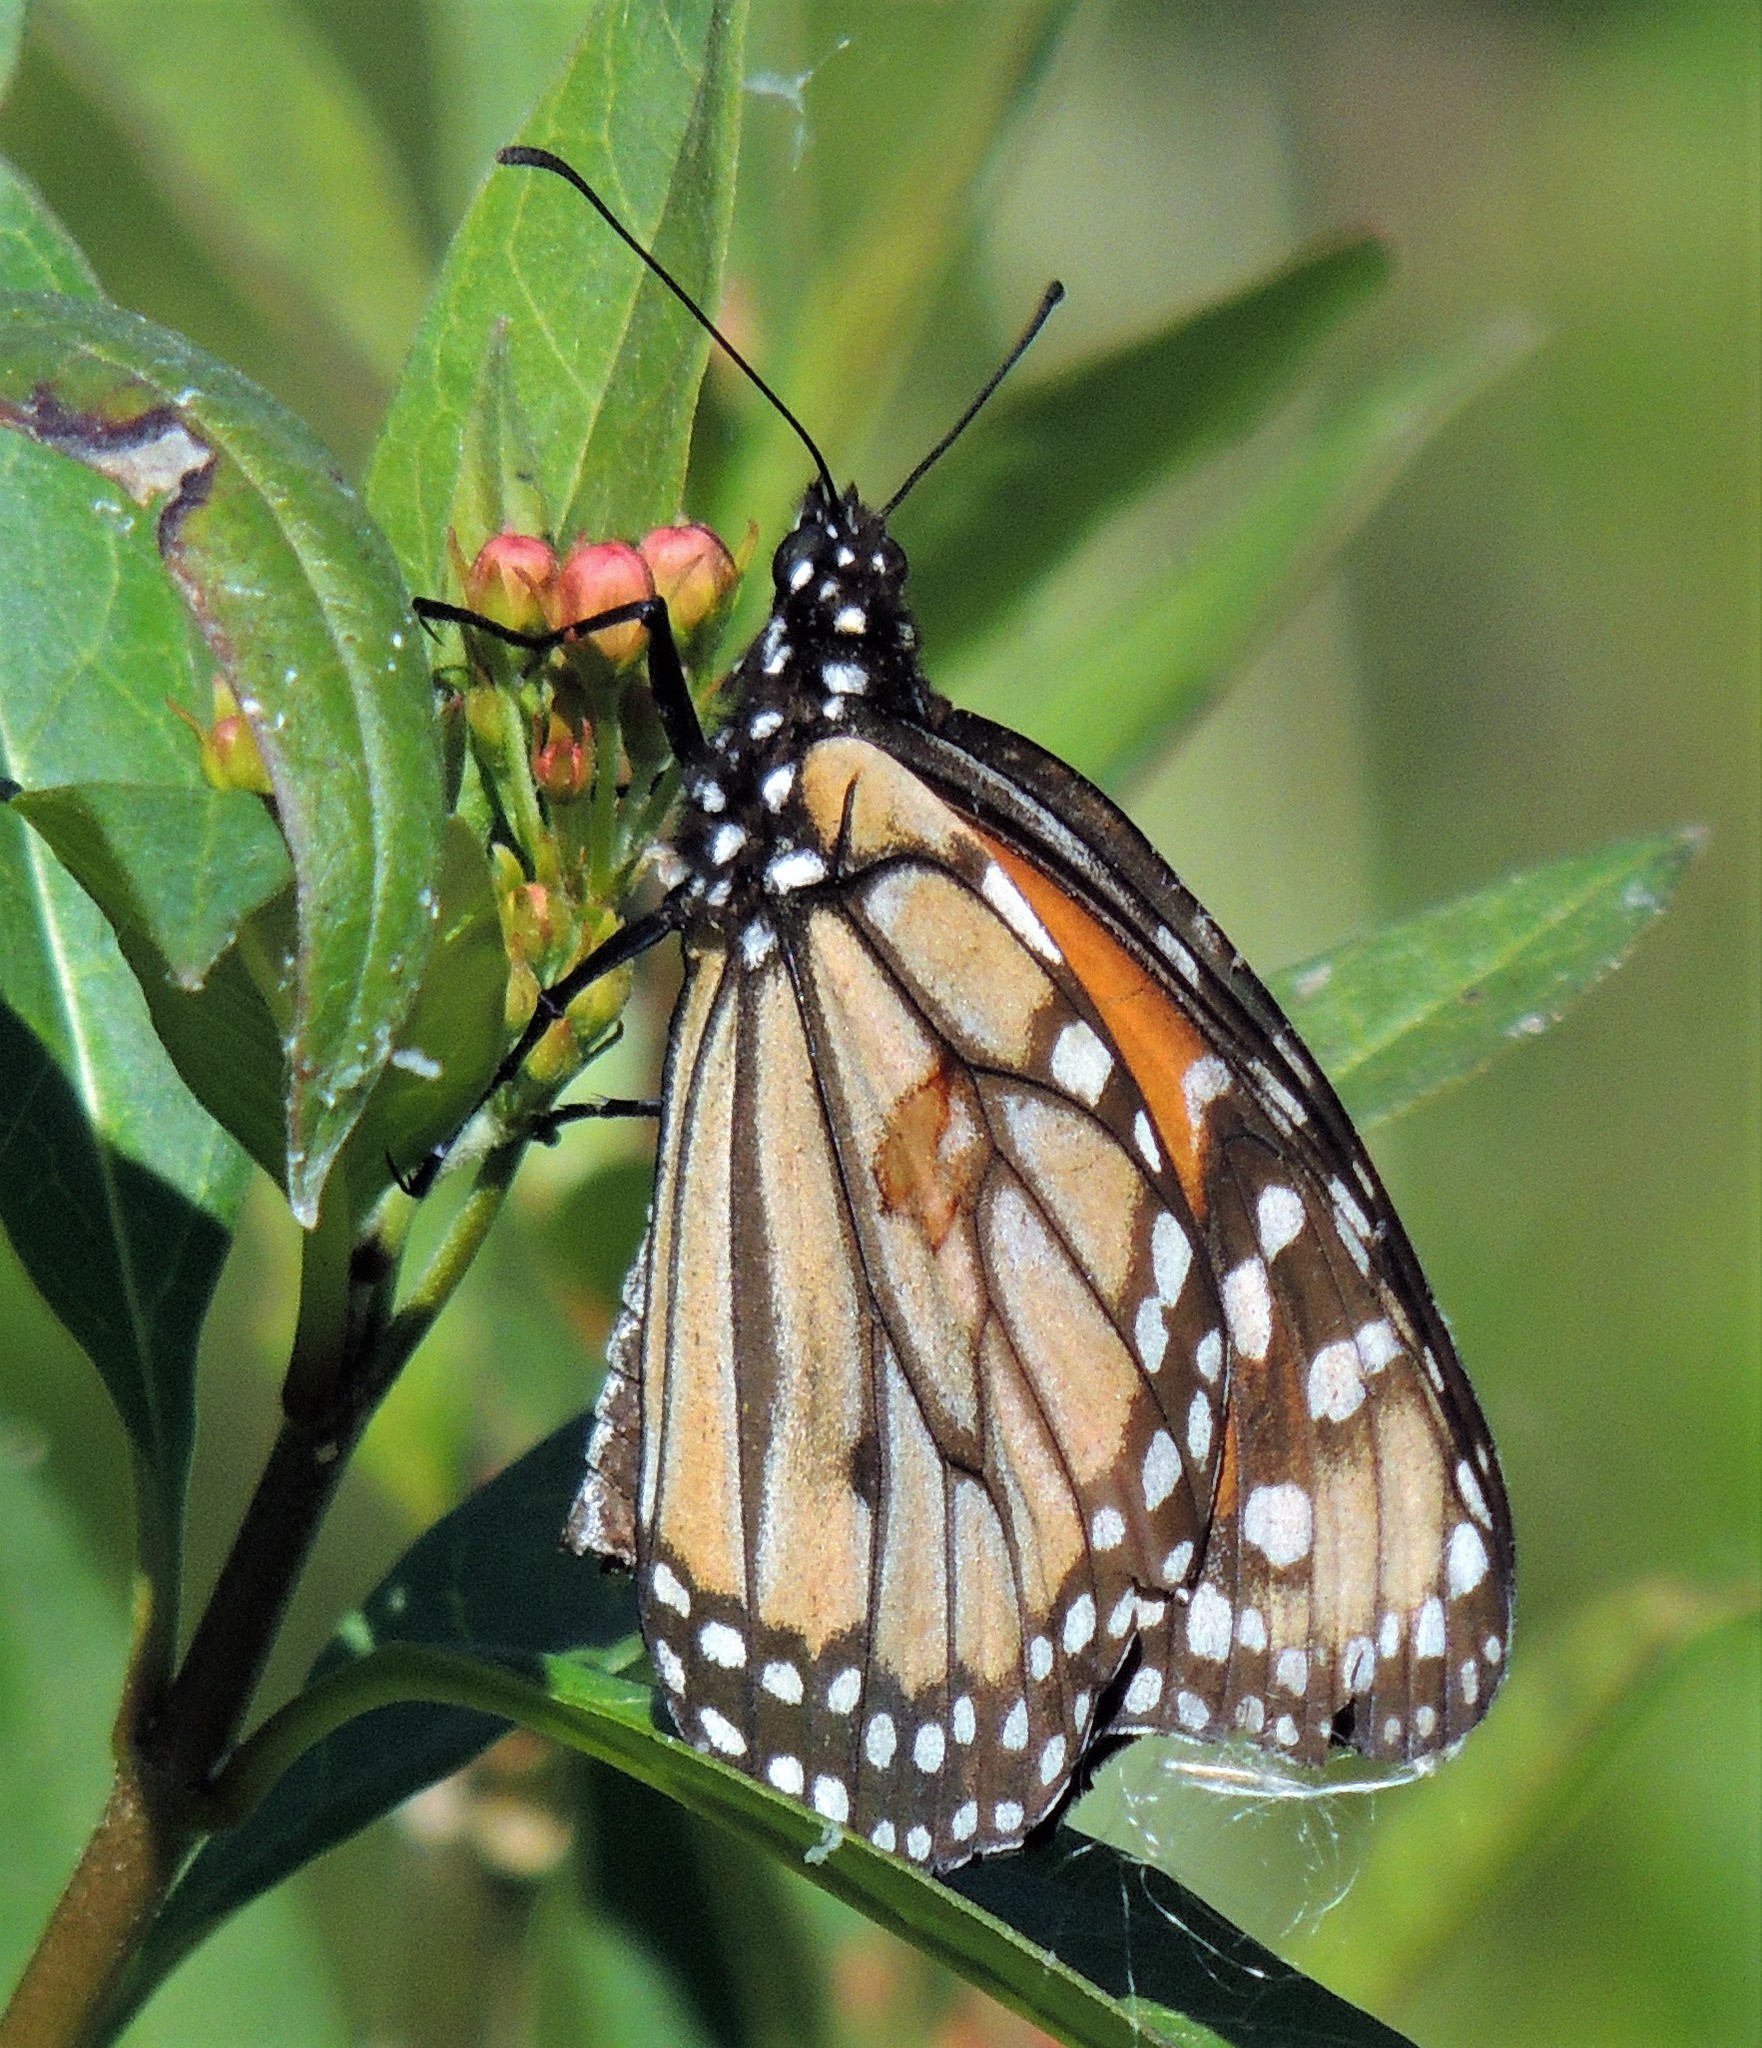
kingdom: Animalia
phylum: Arthropoda
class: Insecta
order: Lepidoptera
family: Nymphalidae
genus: Danaus
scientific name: Danaus erippus
